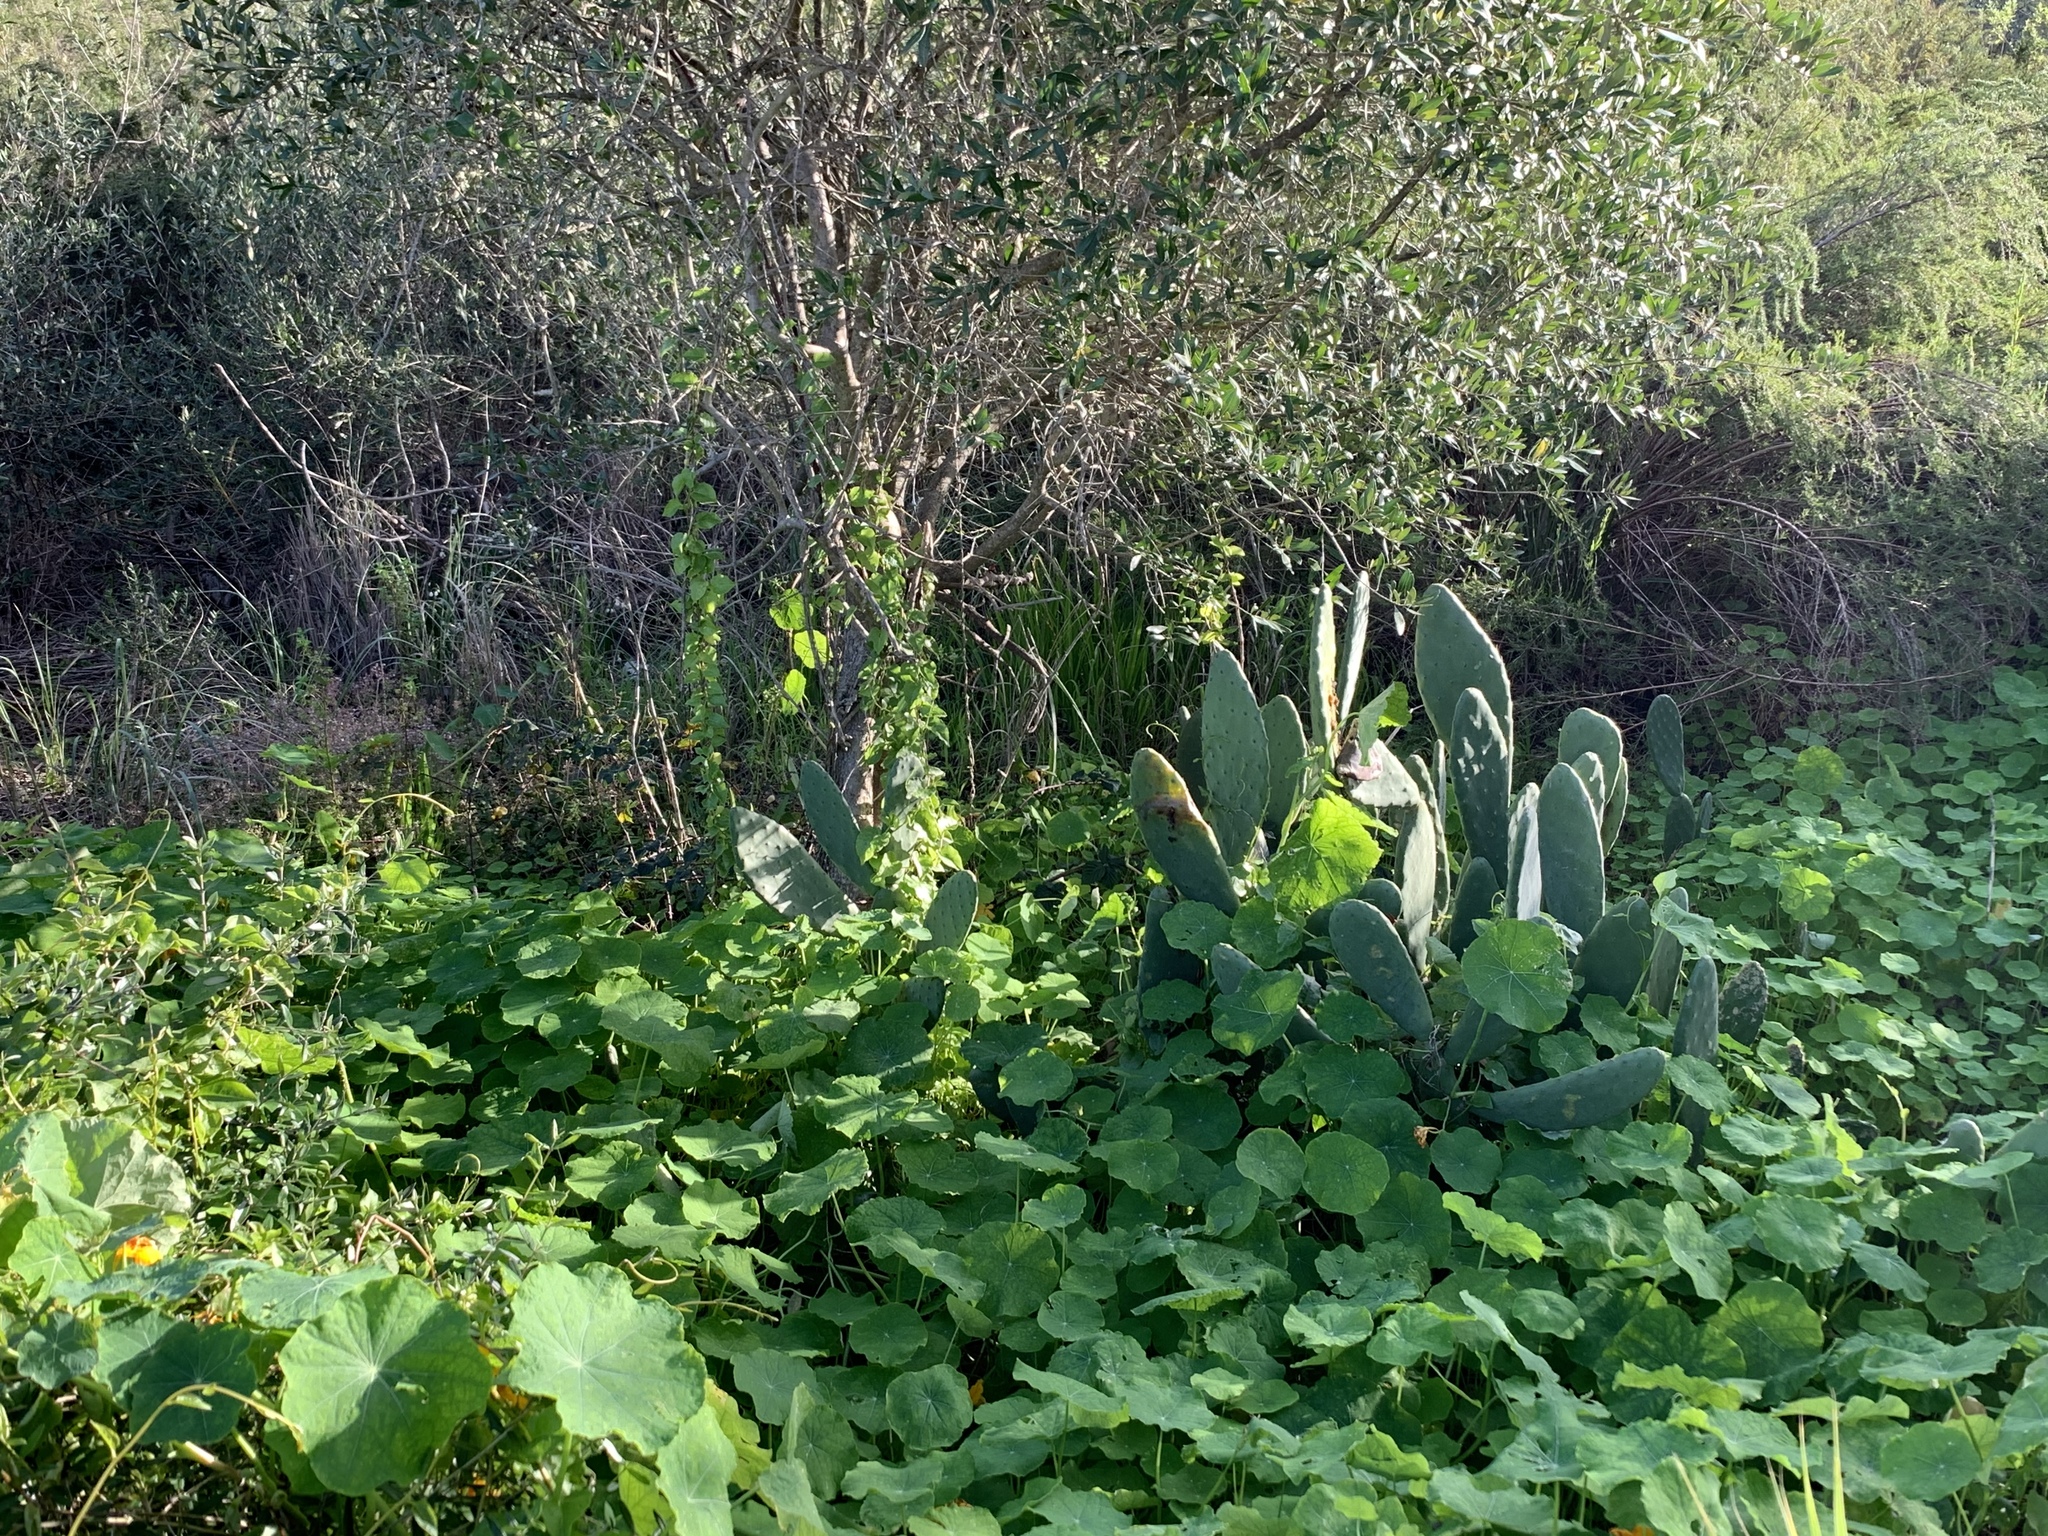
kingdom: Plantae
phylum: Tracheophyta
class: Magnoliopsida
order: Caryophyllales
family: Cactaceae
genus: Opuntia
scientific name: Opuntia ficus-indica
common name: Barbary fig
